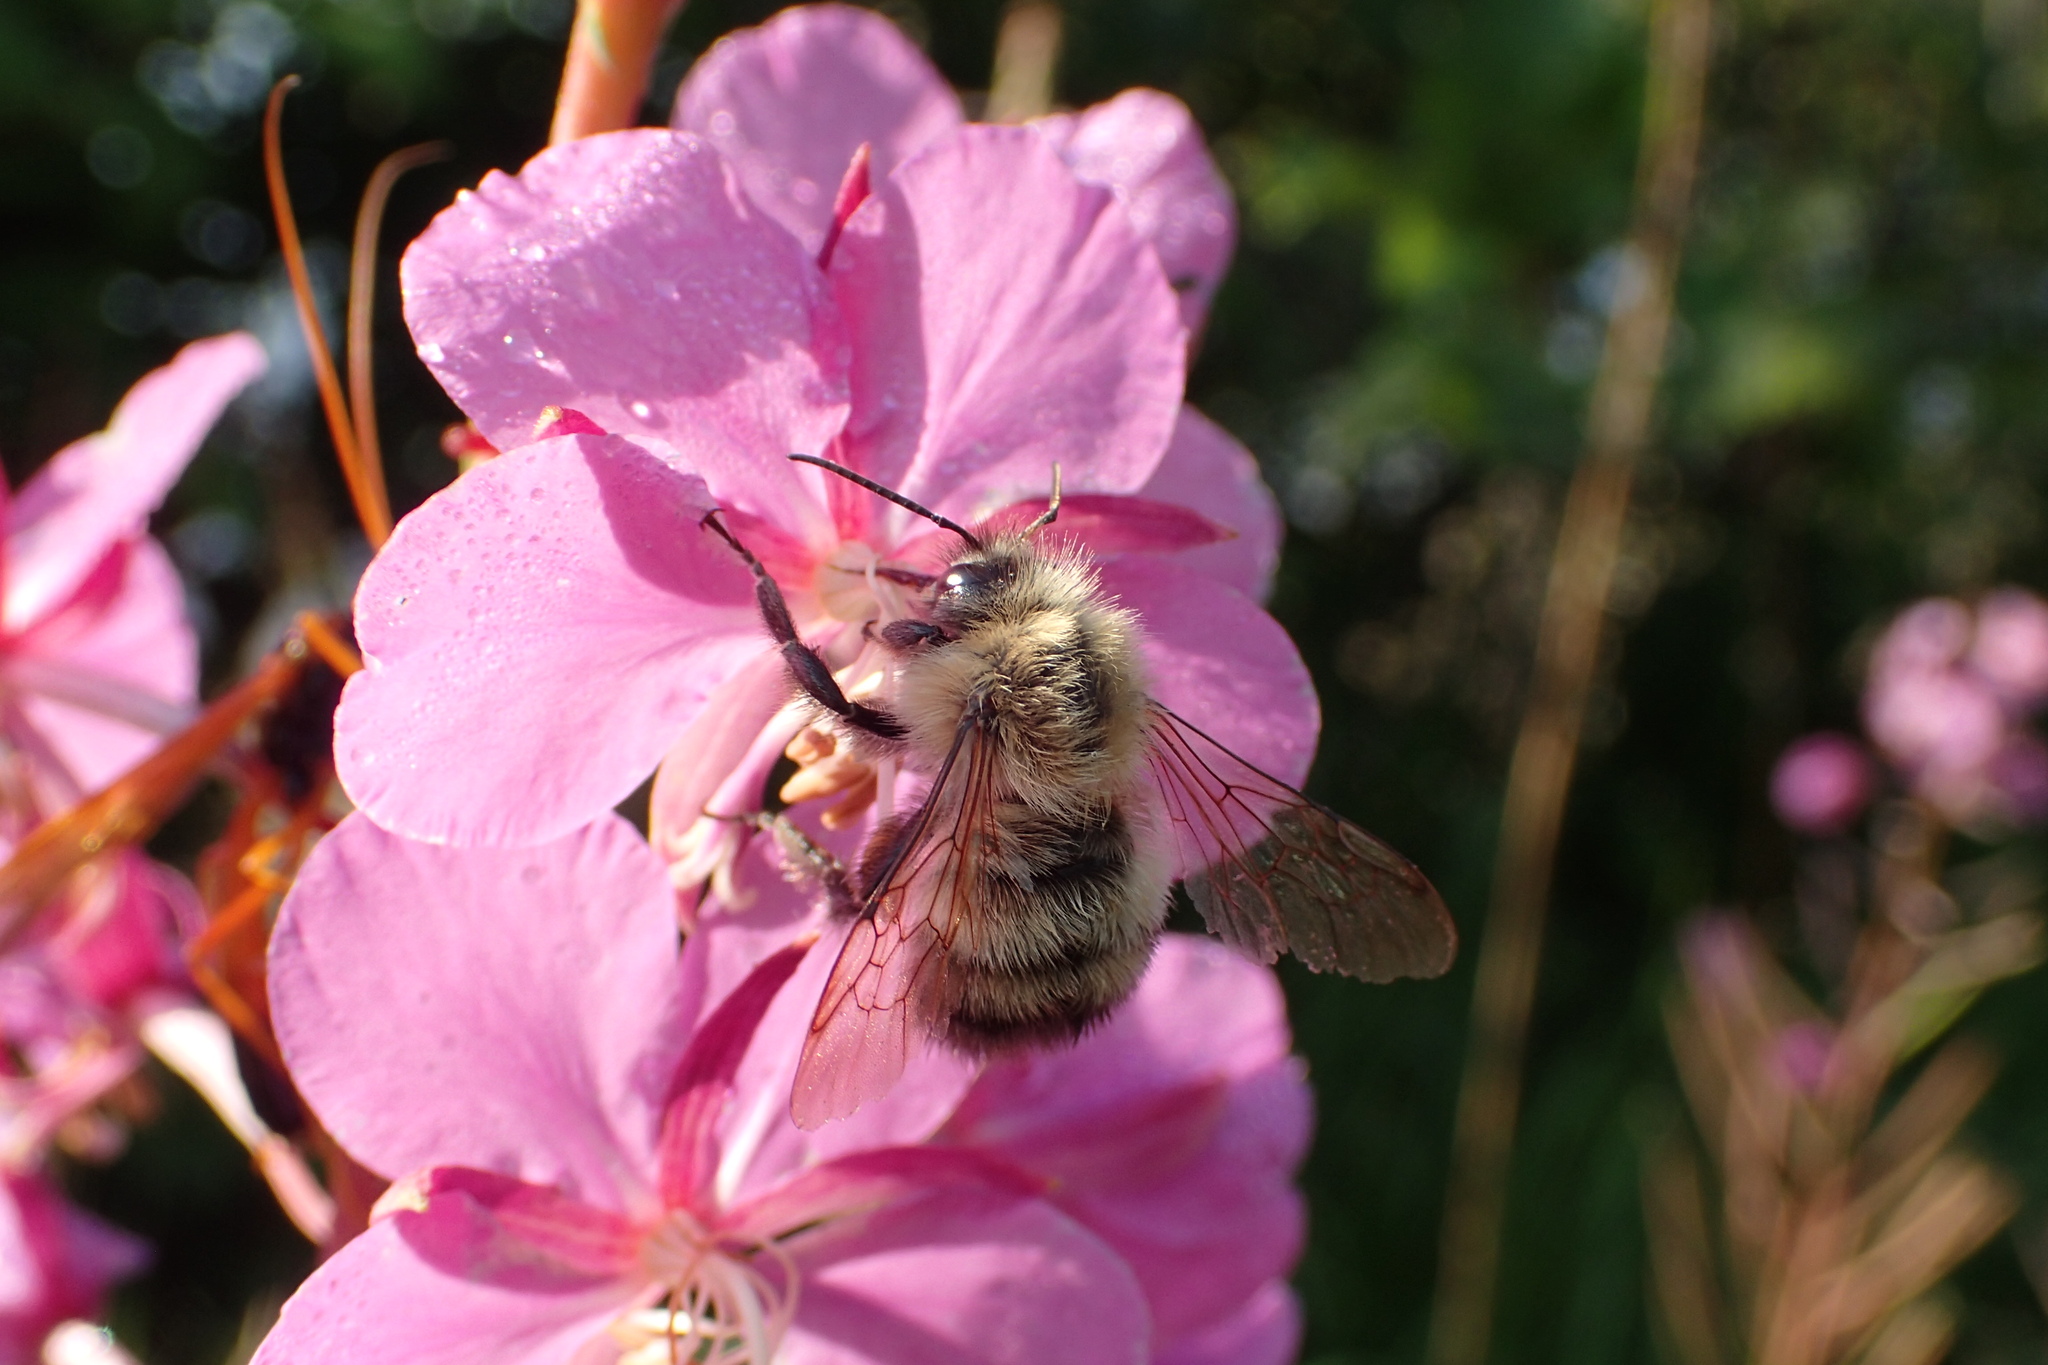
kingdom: Animalia
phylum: Arthropoda
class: Insecta
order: Hymenoptera
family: Apidae
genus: Bombus
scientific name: Bombus perplexus
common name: Confusing bumble bee
